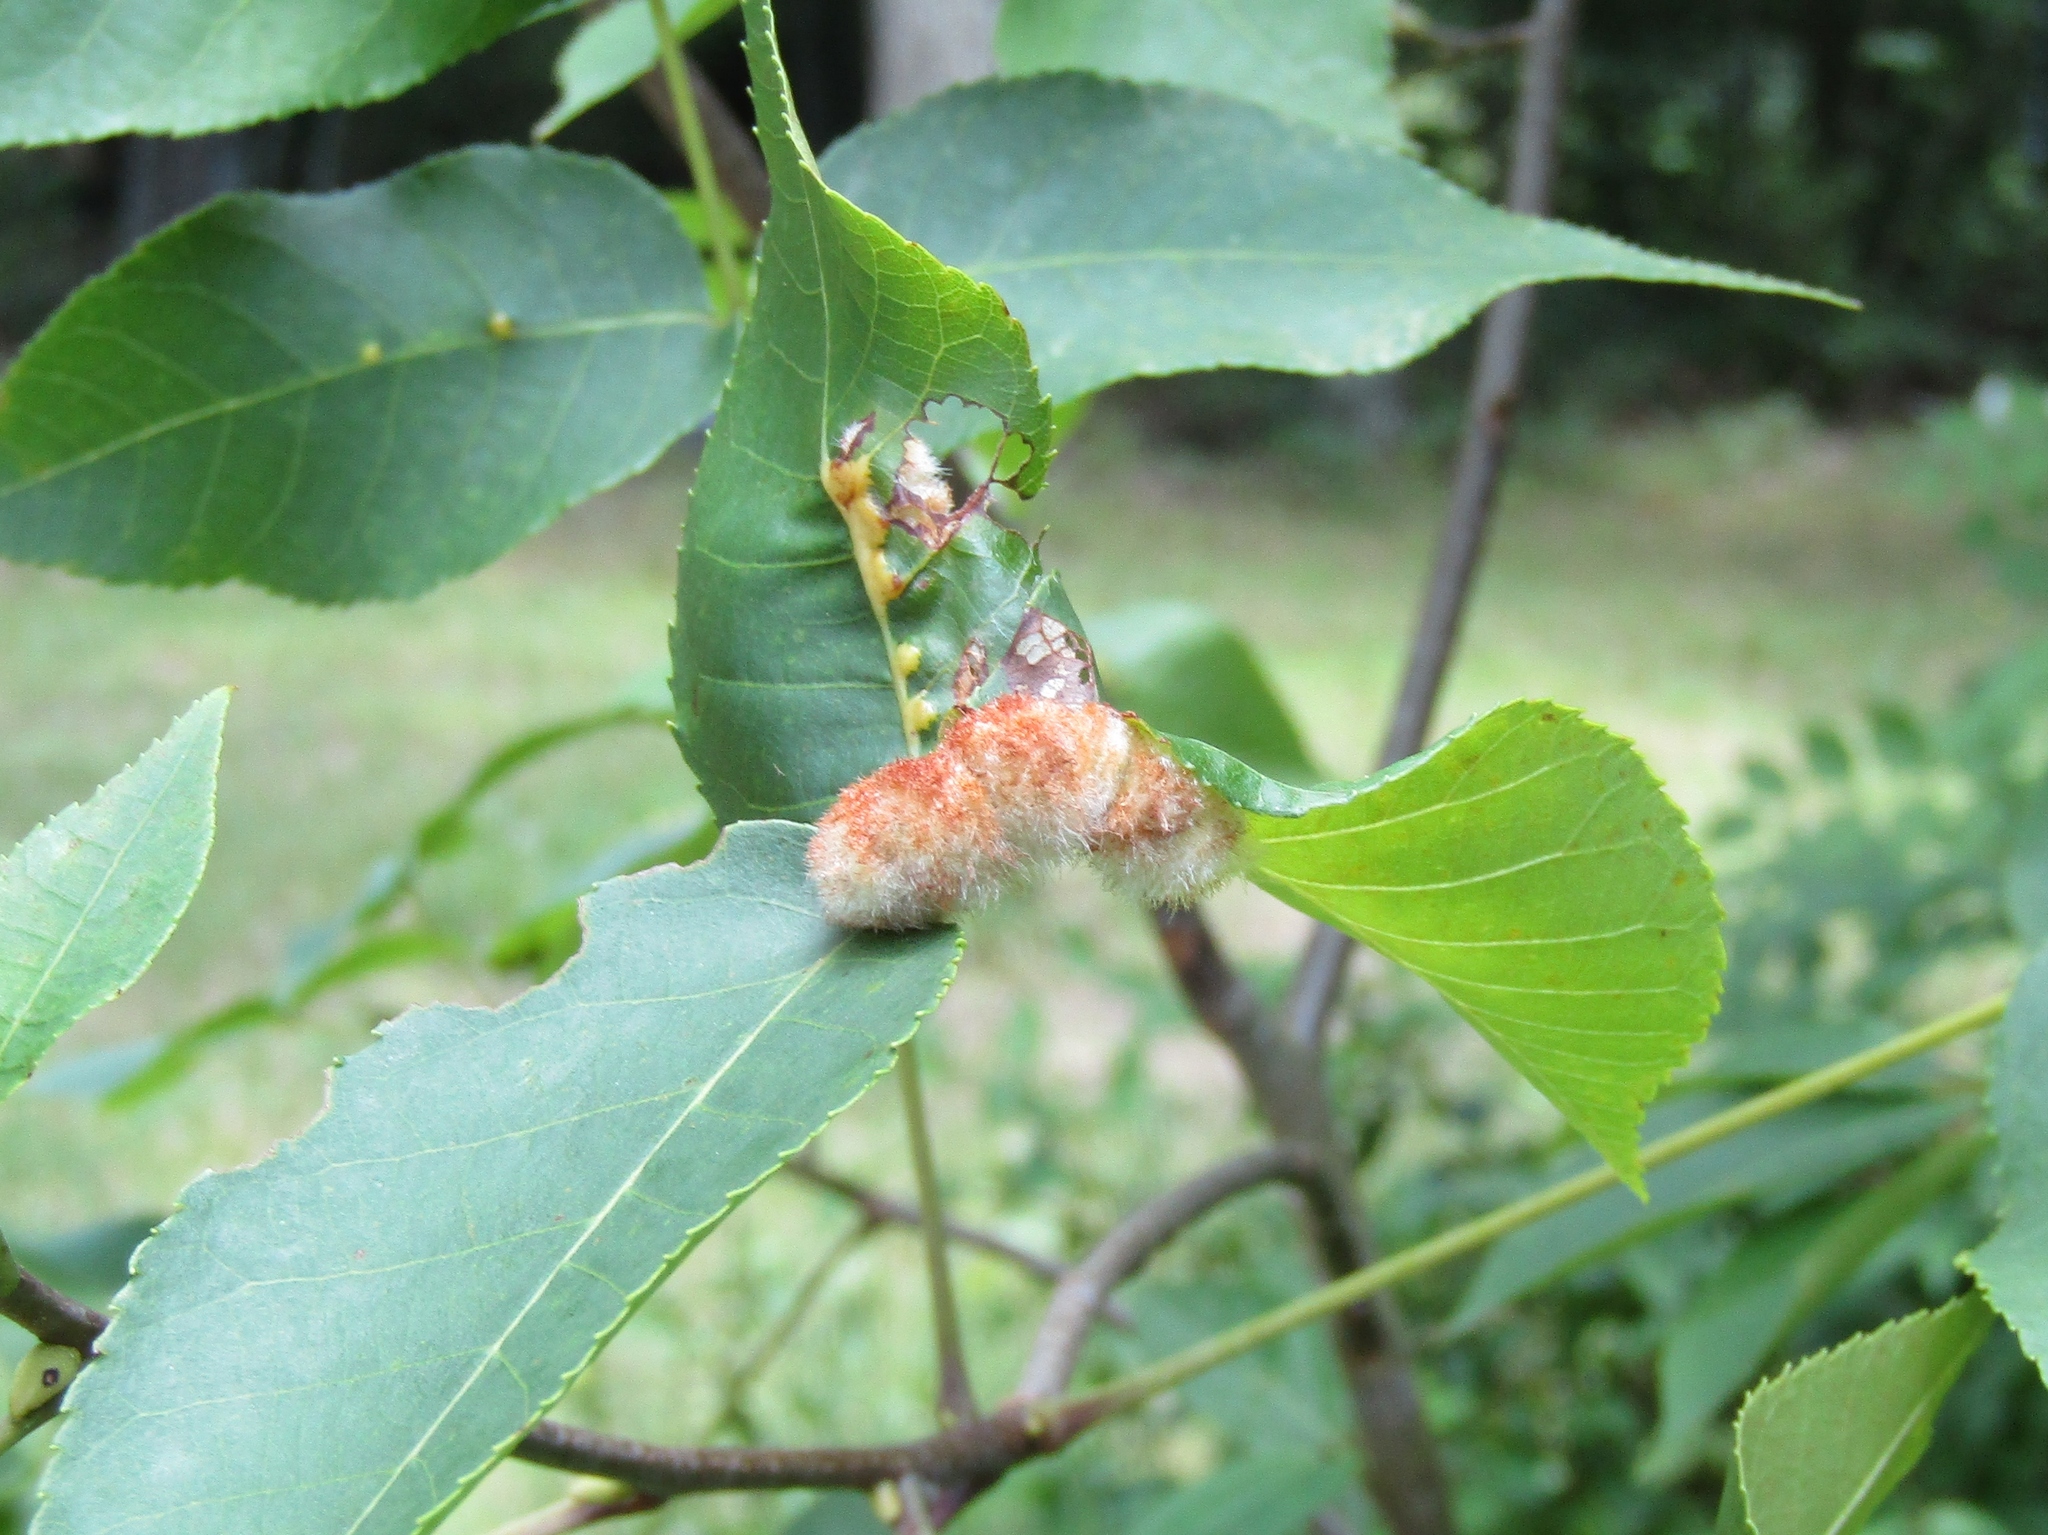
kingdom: Animalia
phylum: Arthropoda
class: Insecta
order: Diptera
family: Cecidomyiidae
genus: Caryomyia
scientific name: Caryomyia aggregata
